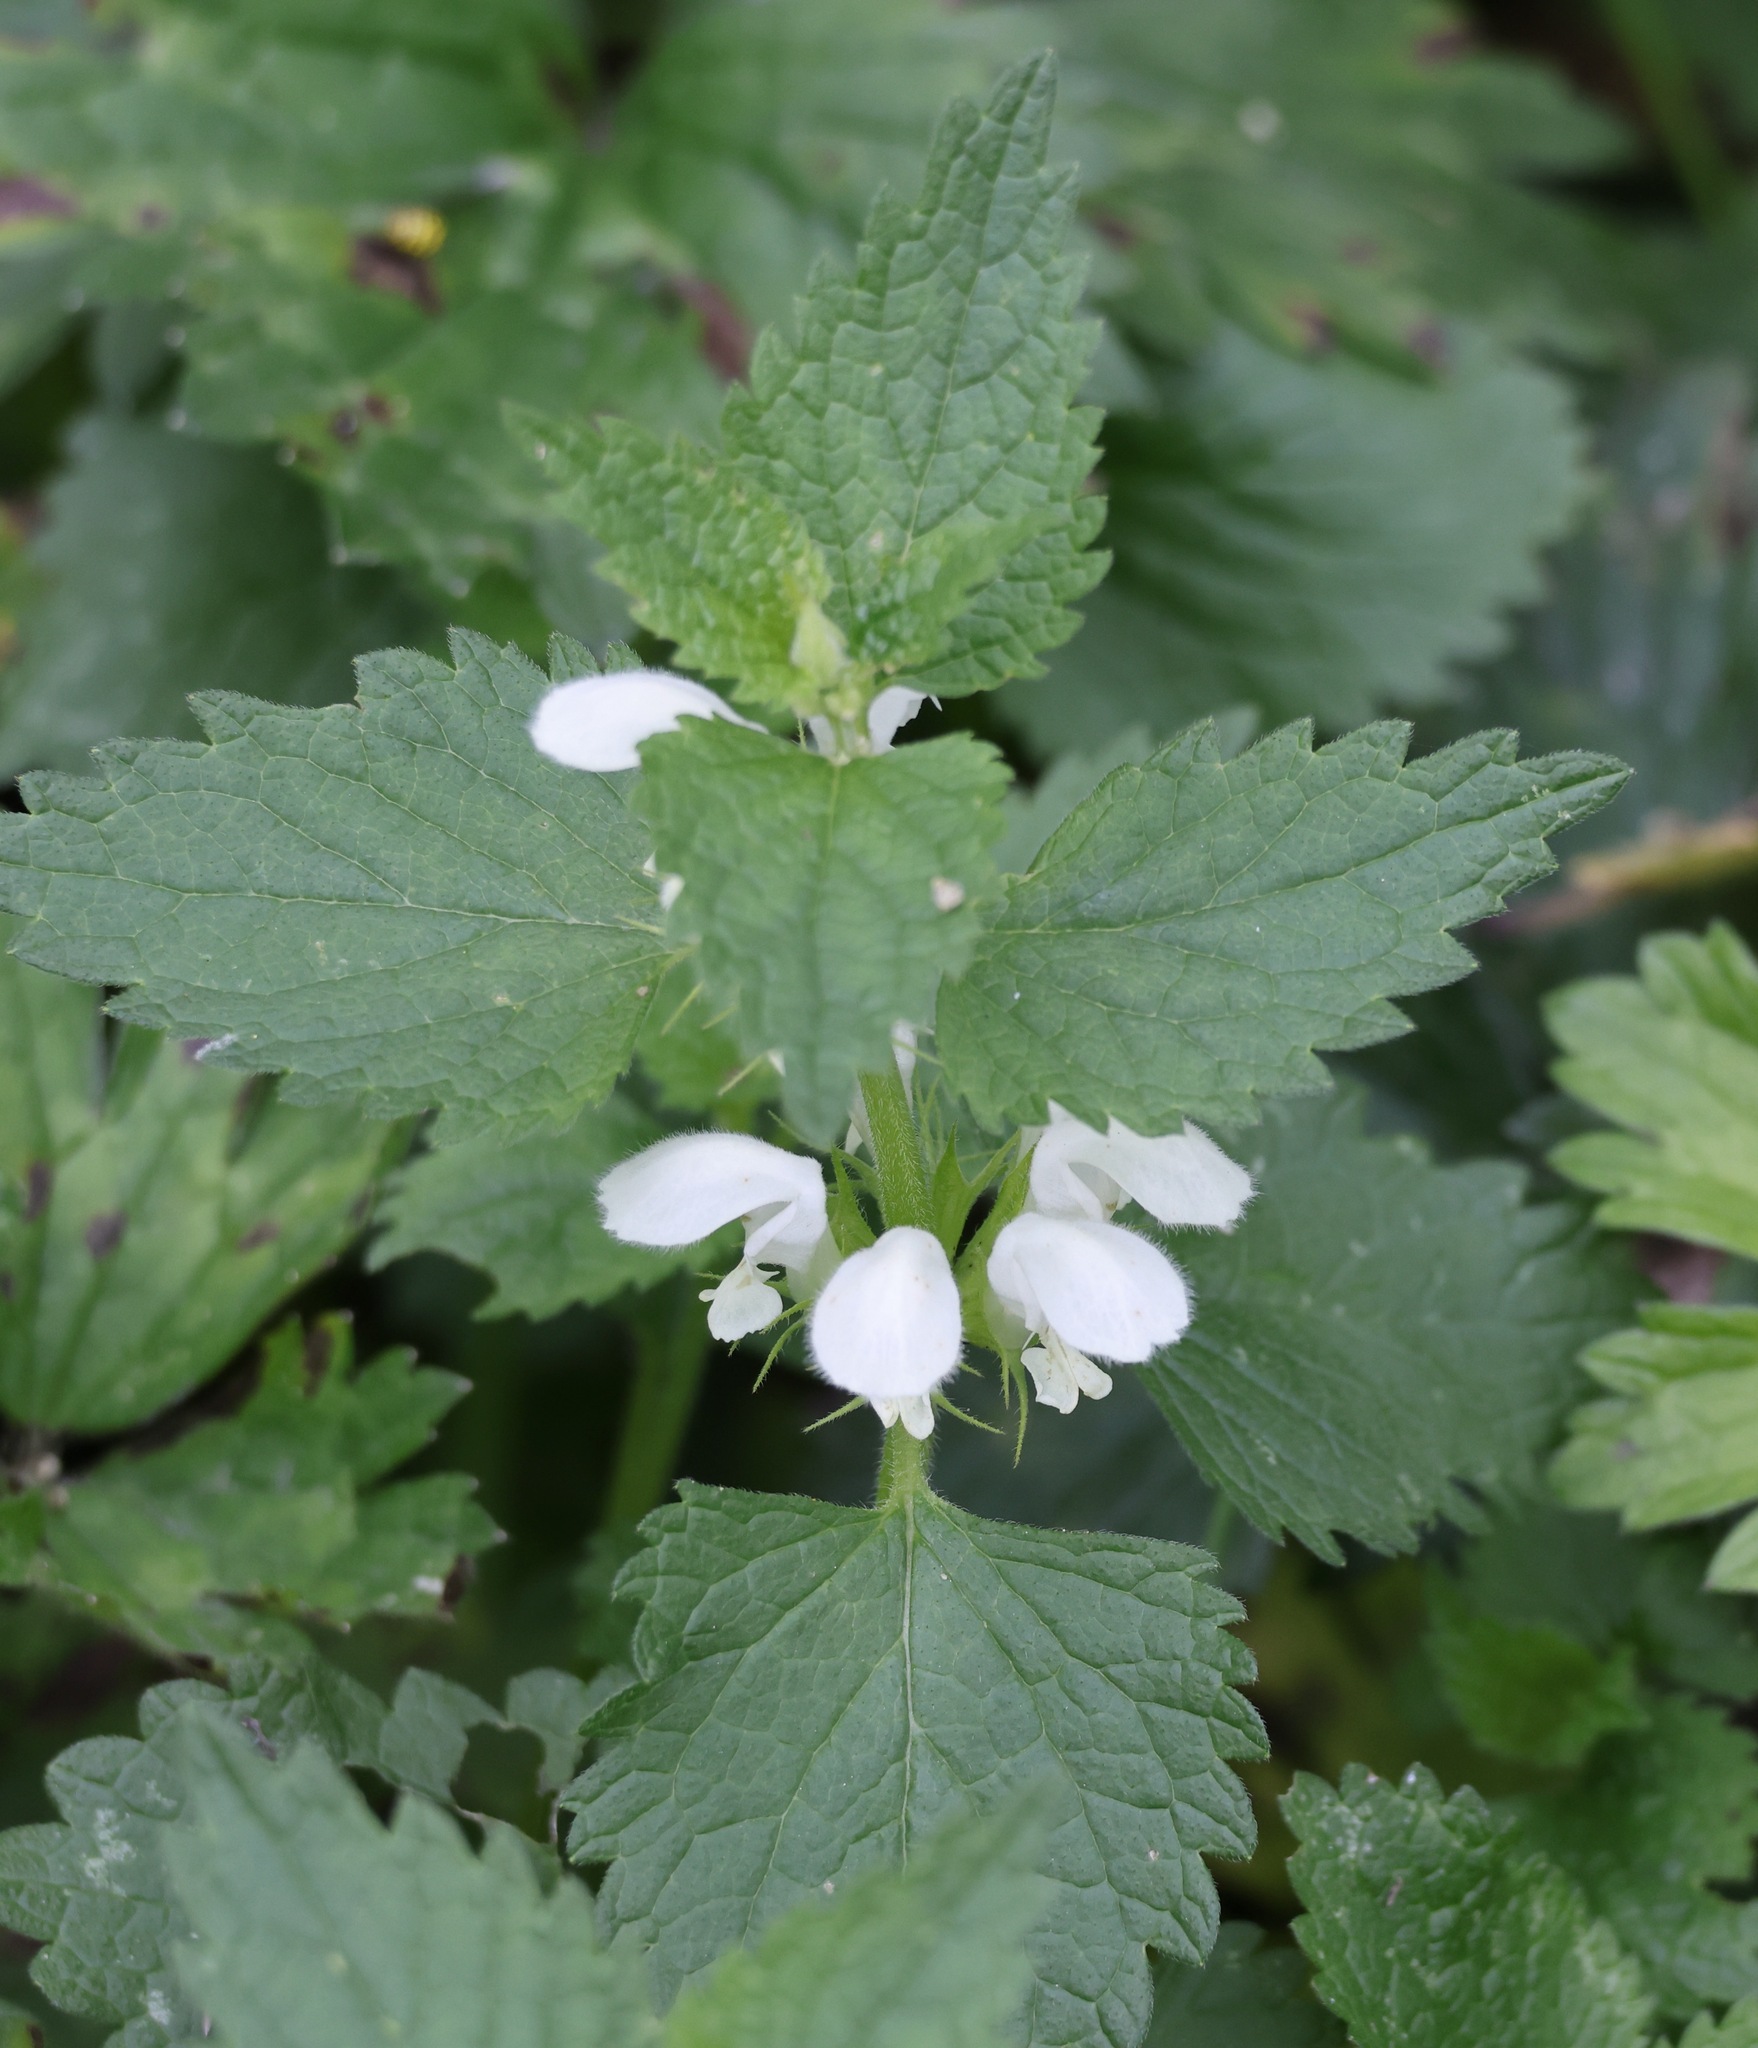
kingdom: Plantae
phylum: Tracheophyta
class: Magnoliopsida
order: Lamiales
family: Lamiaceae
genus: Lamium
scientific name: Lamium album
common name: White dead-nettle
